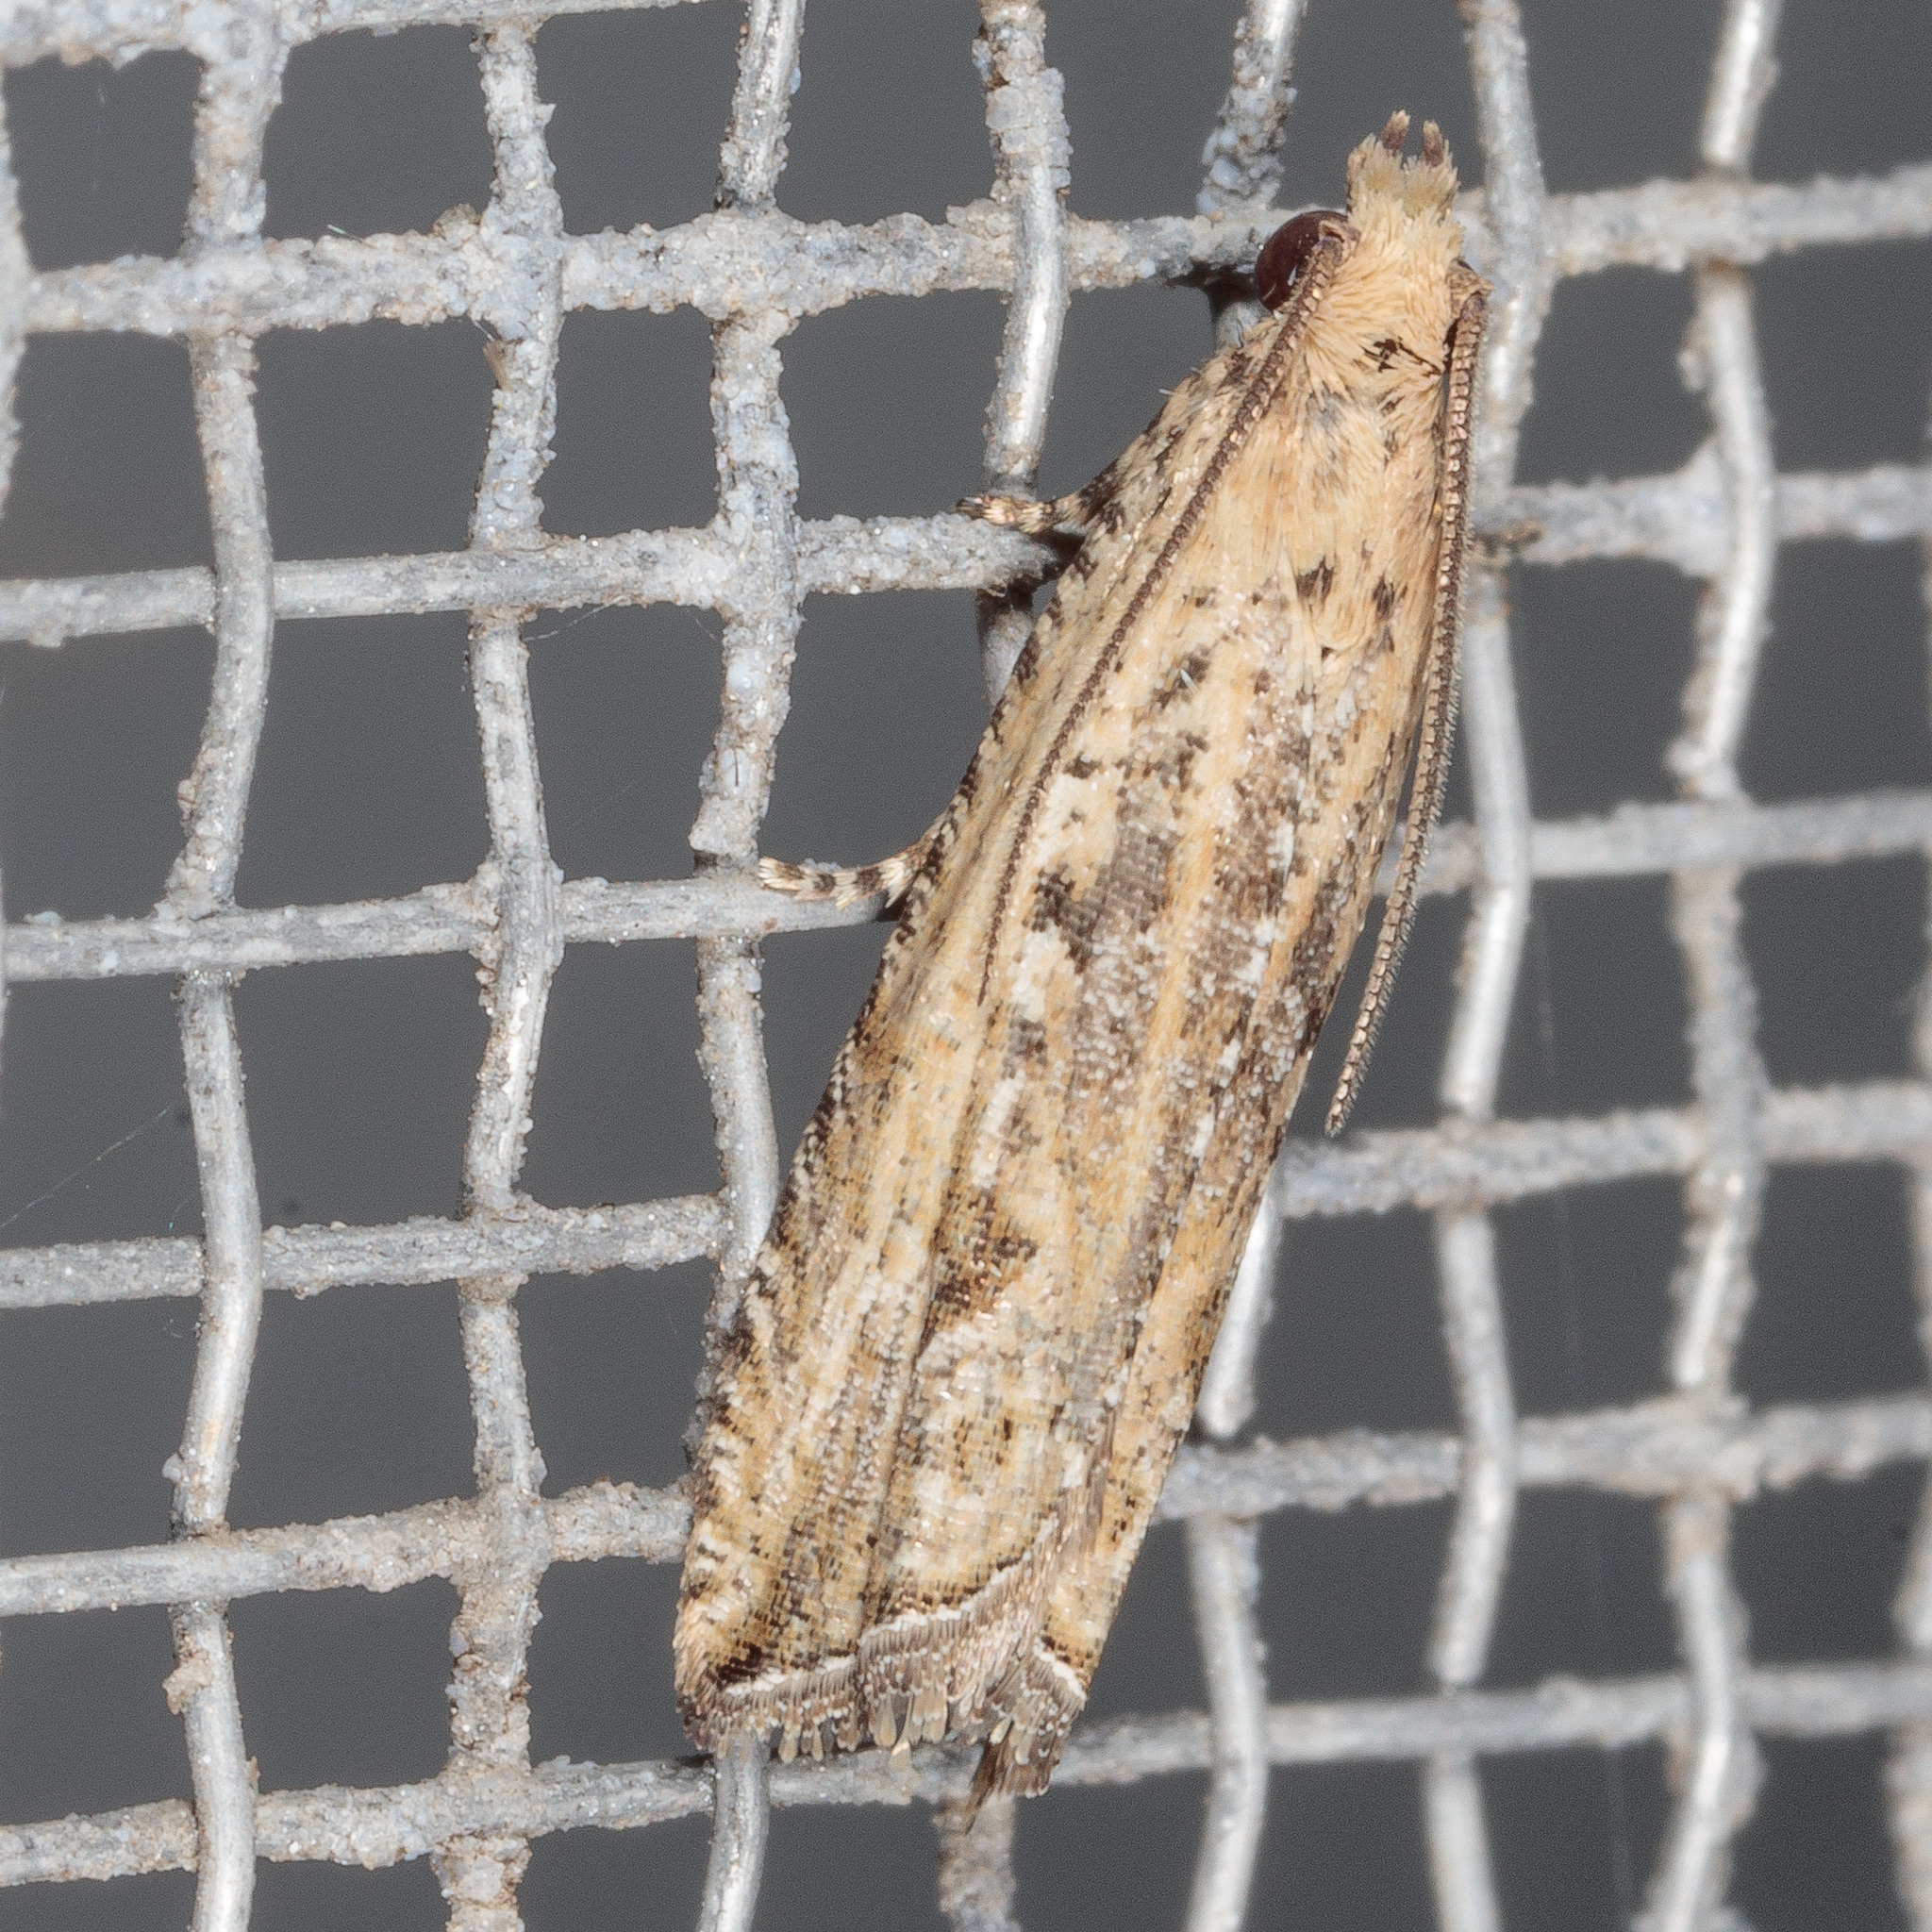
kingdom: Animalia
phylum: Arthropoda
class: Insecta
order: Lepidoptera
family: Tortricidae
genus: Bactra
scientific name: Bactra verutana
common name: Javelin moth
